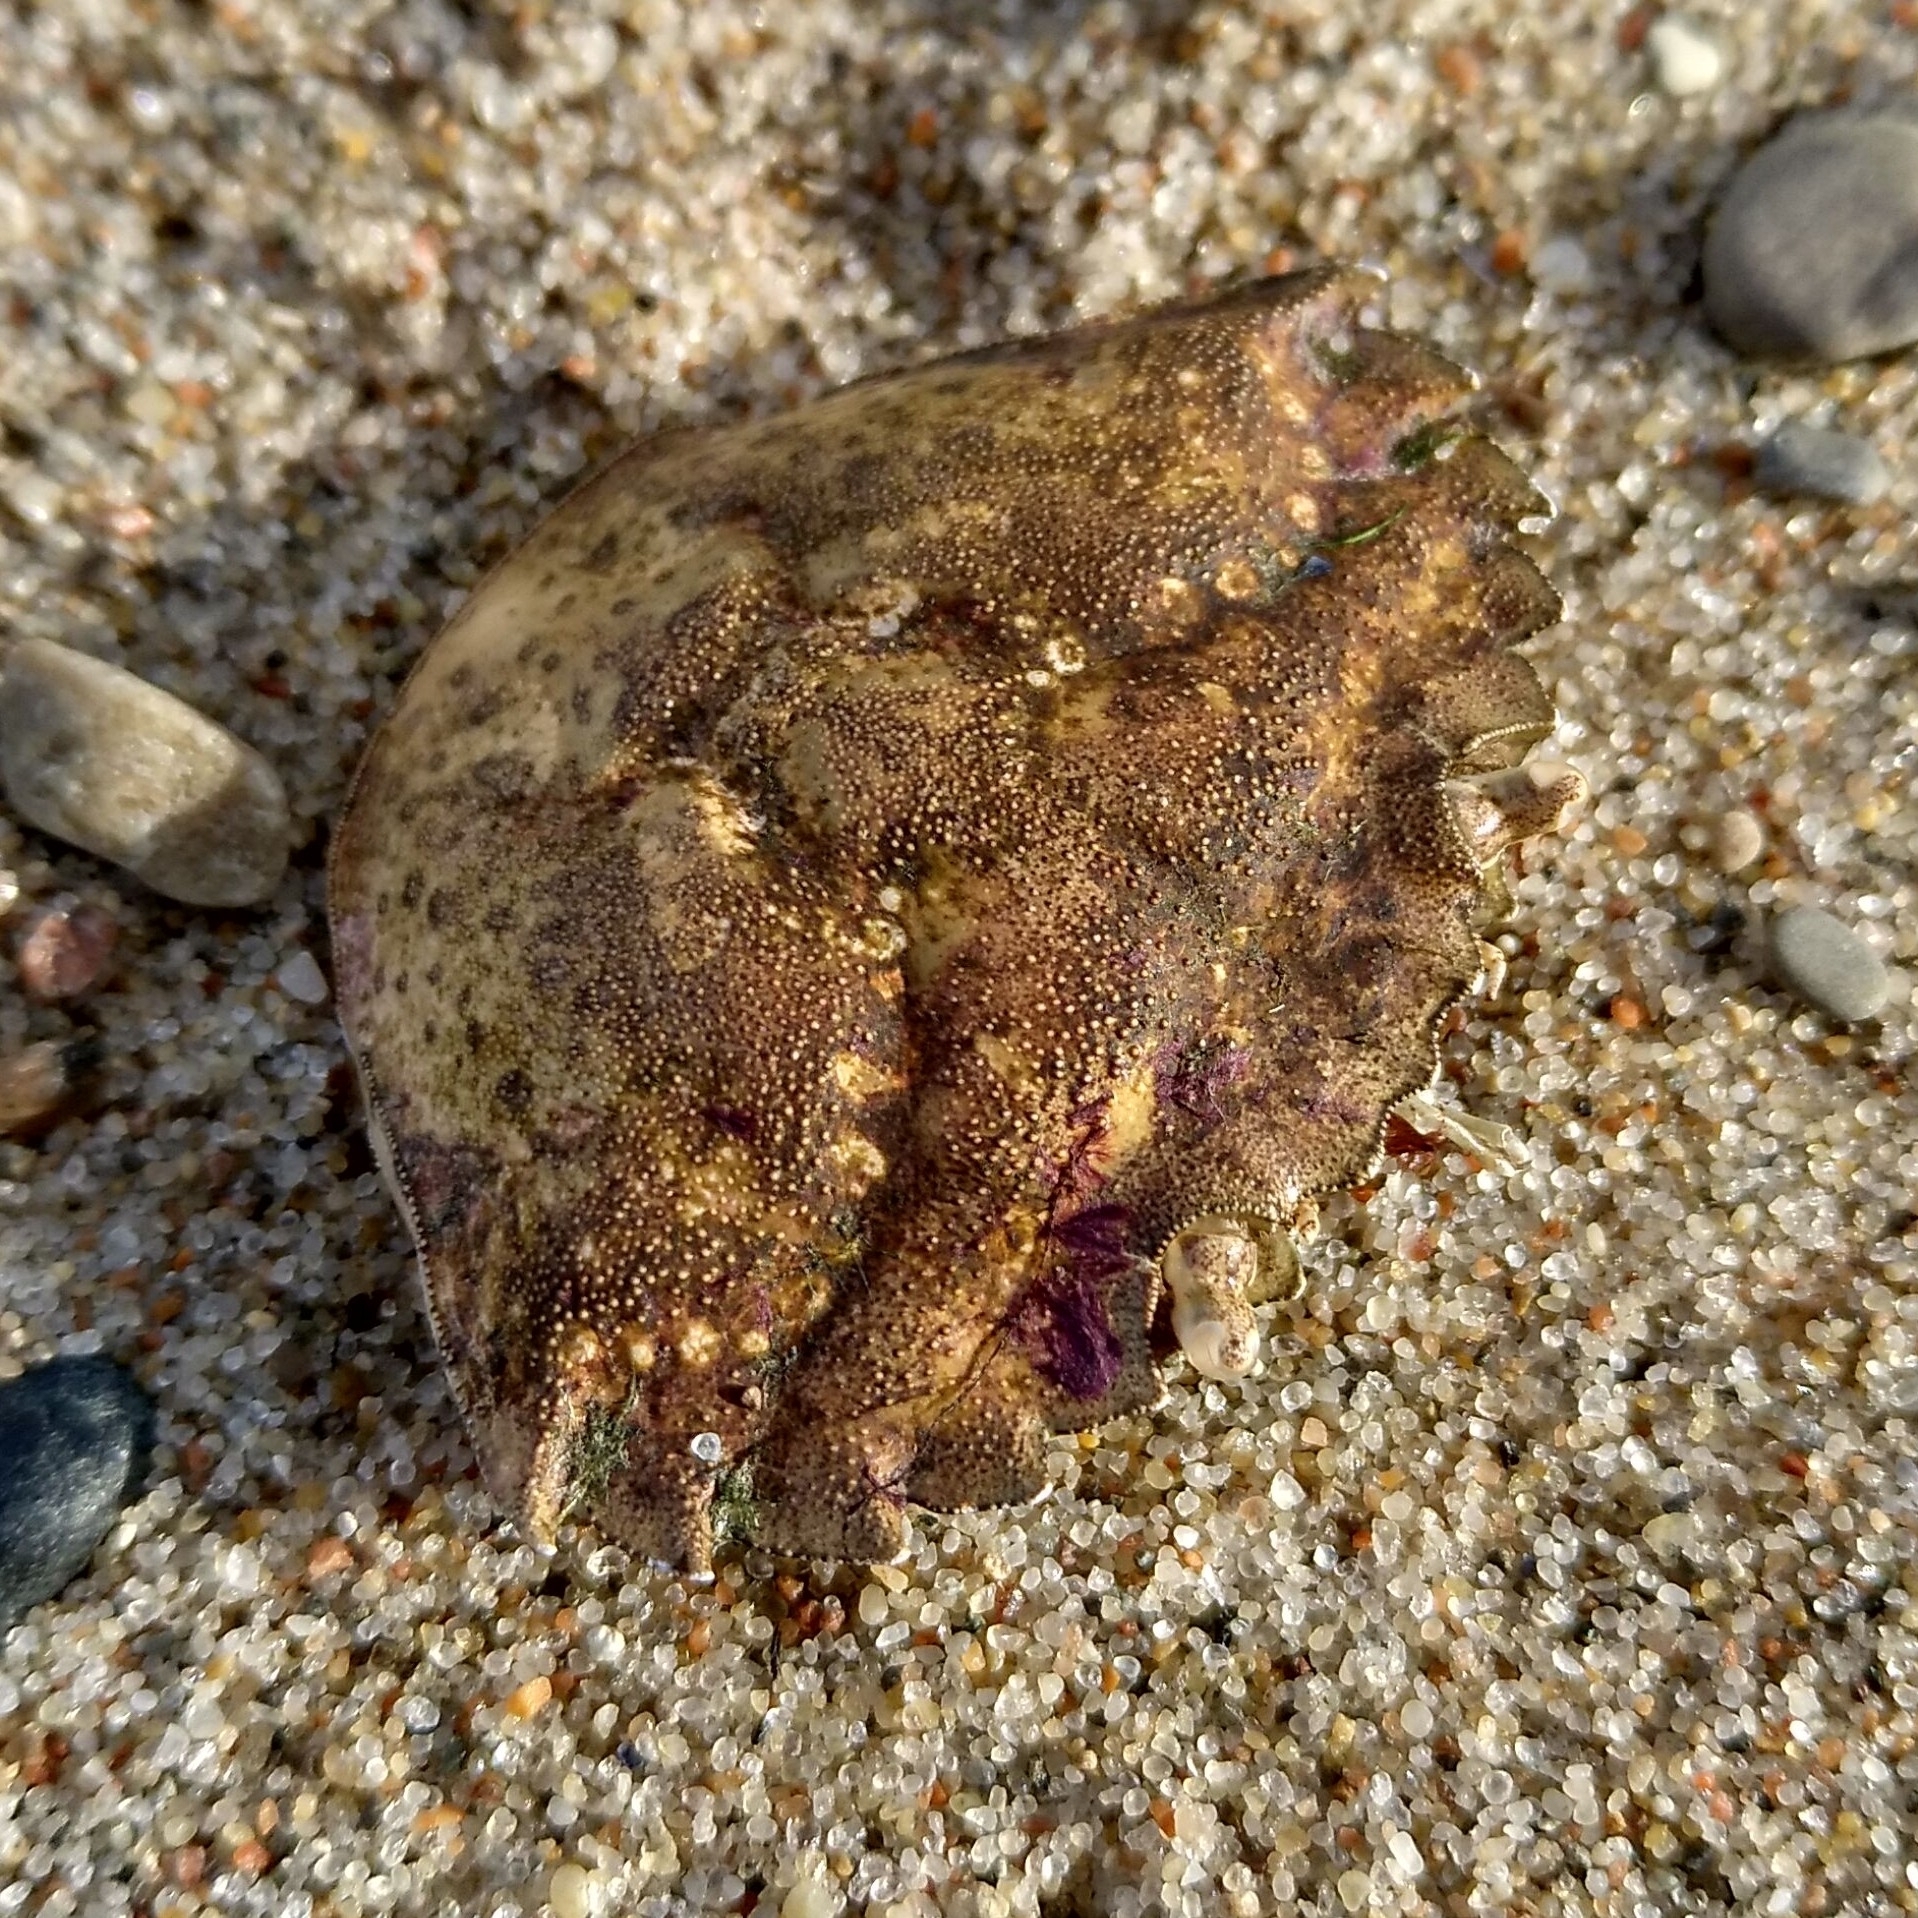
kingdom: Animalia
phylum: Arthropoda
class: Malacostraca
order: Decapoda
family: Carcinidae
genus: Carcinus
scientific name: Carcinus maenas
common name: European green crab
